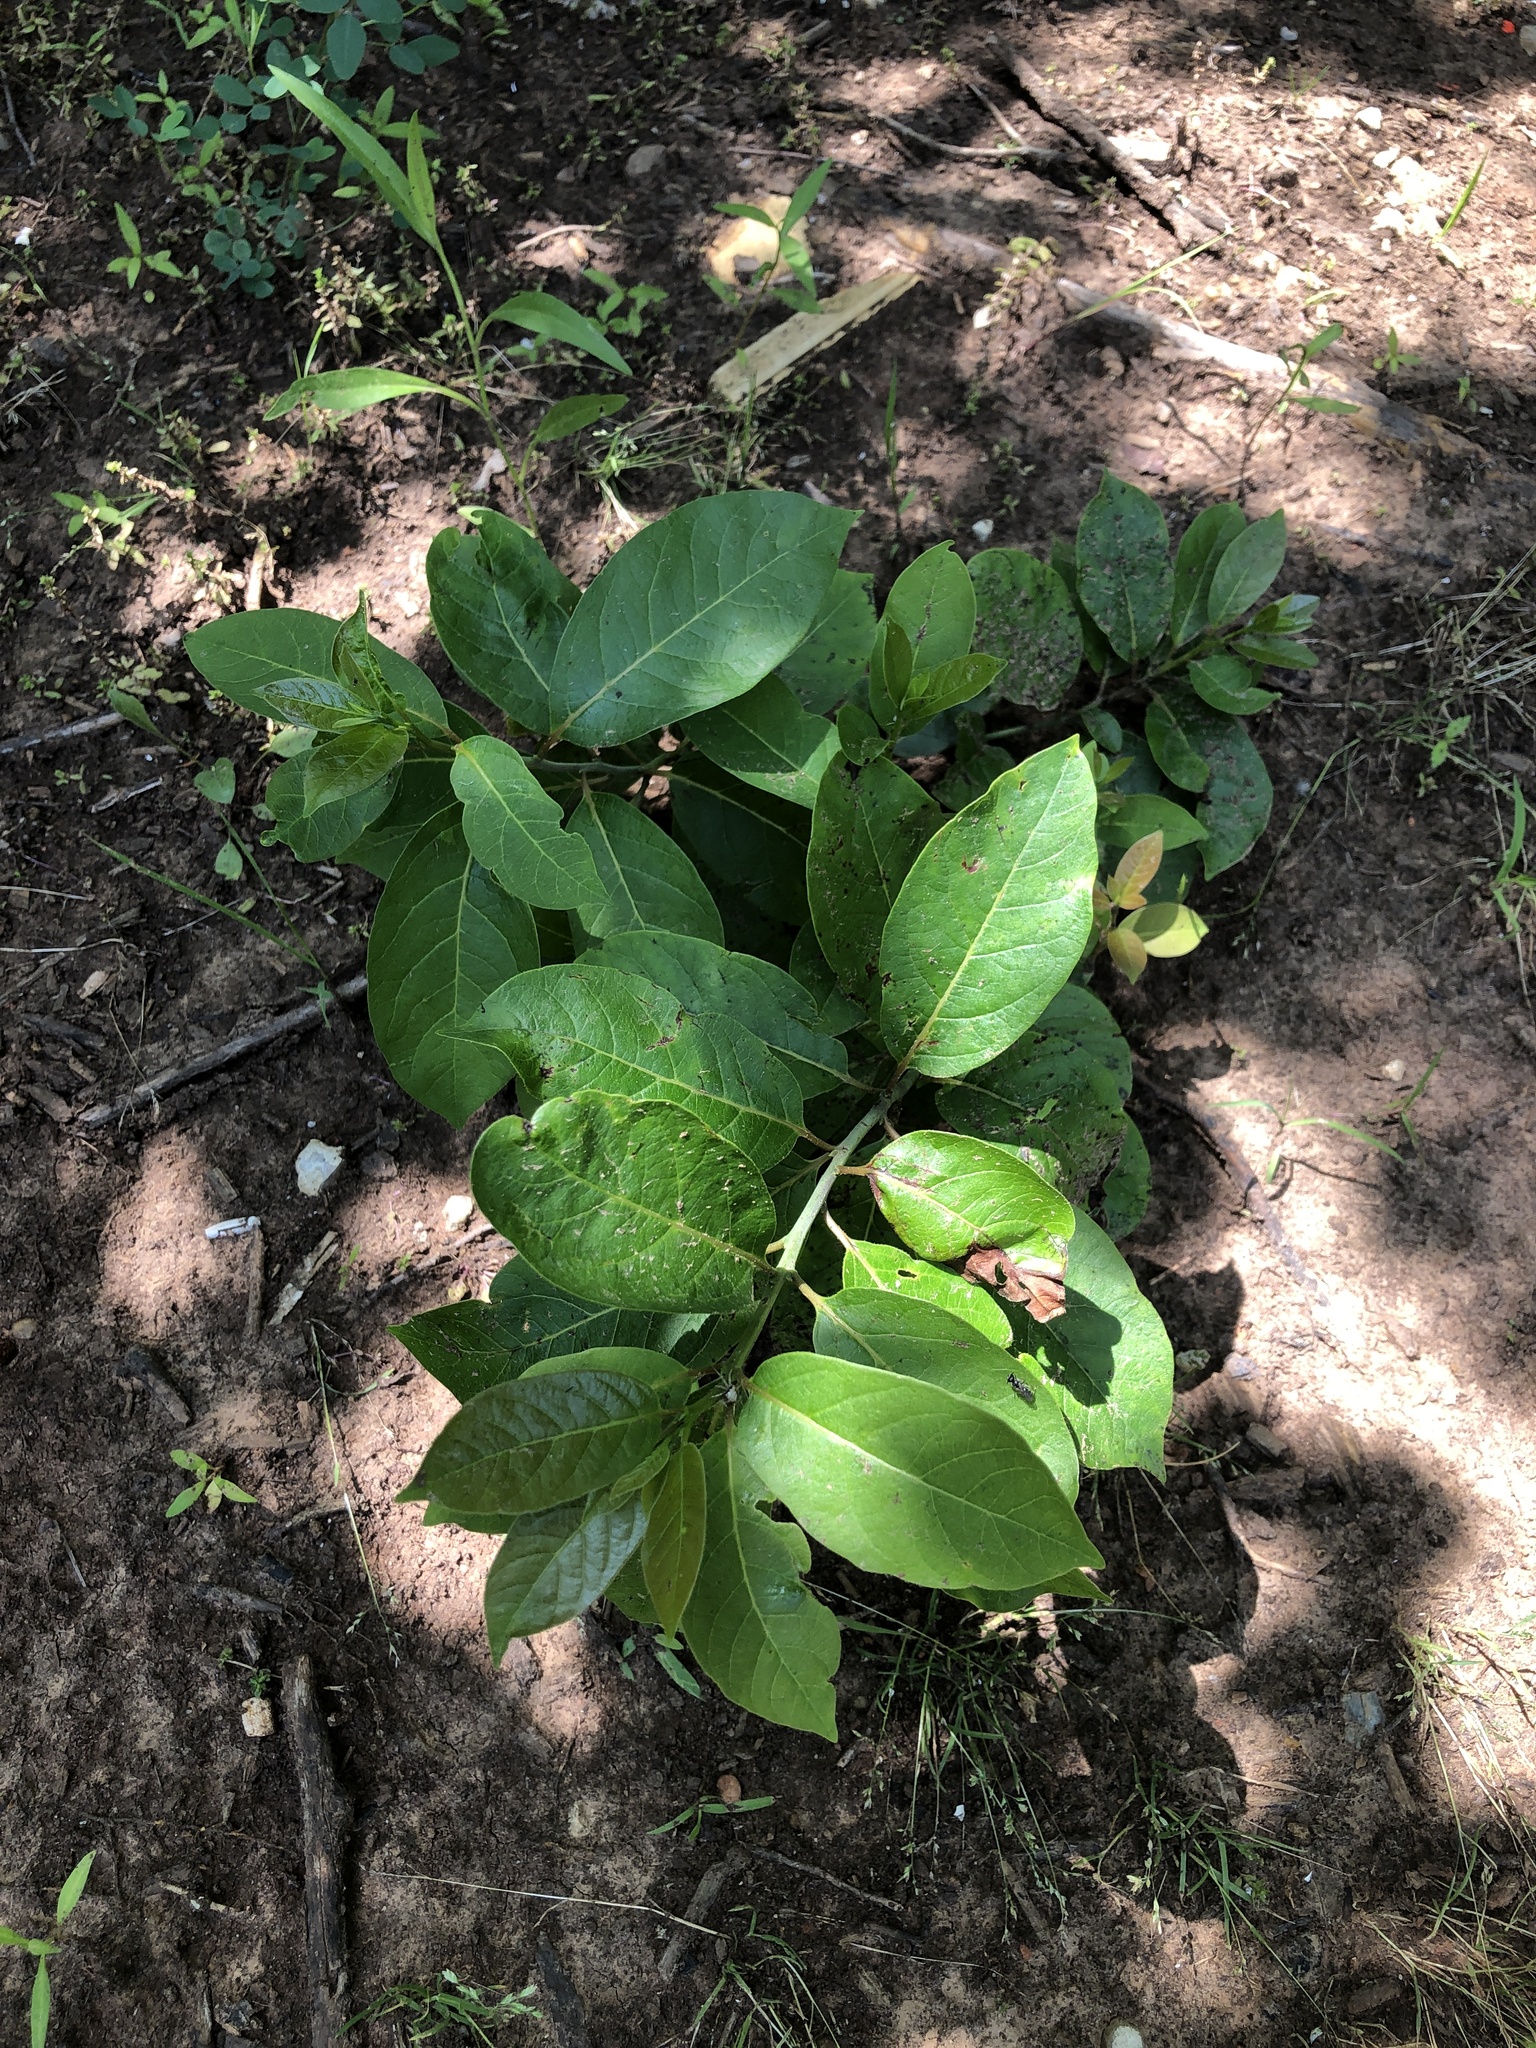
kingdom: Plantae
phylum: Tracheophyta
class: Magnoliopsida
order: Ericales
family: Ebenaceae
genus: Diospyros
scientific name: Diospyros virginiana
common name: Persimmon
